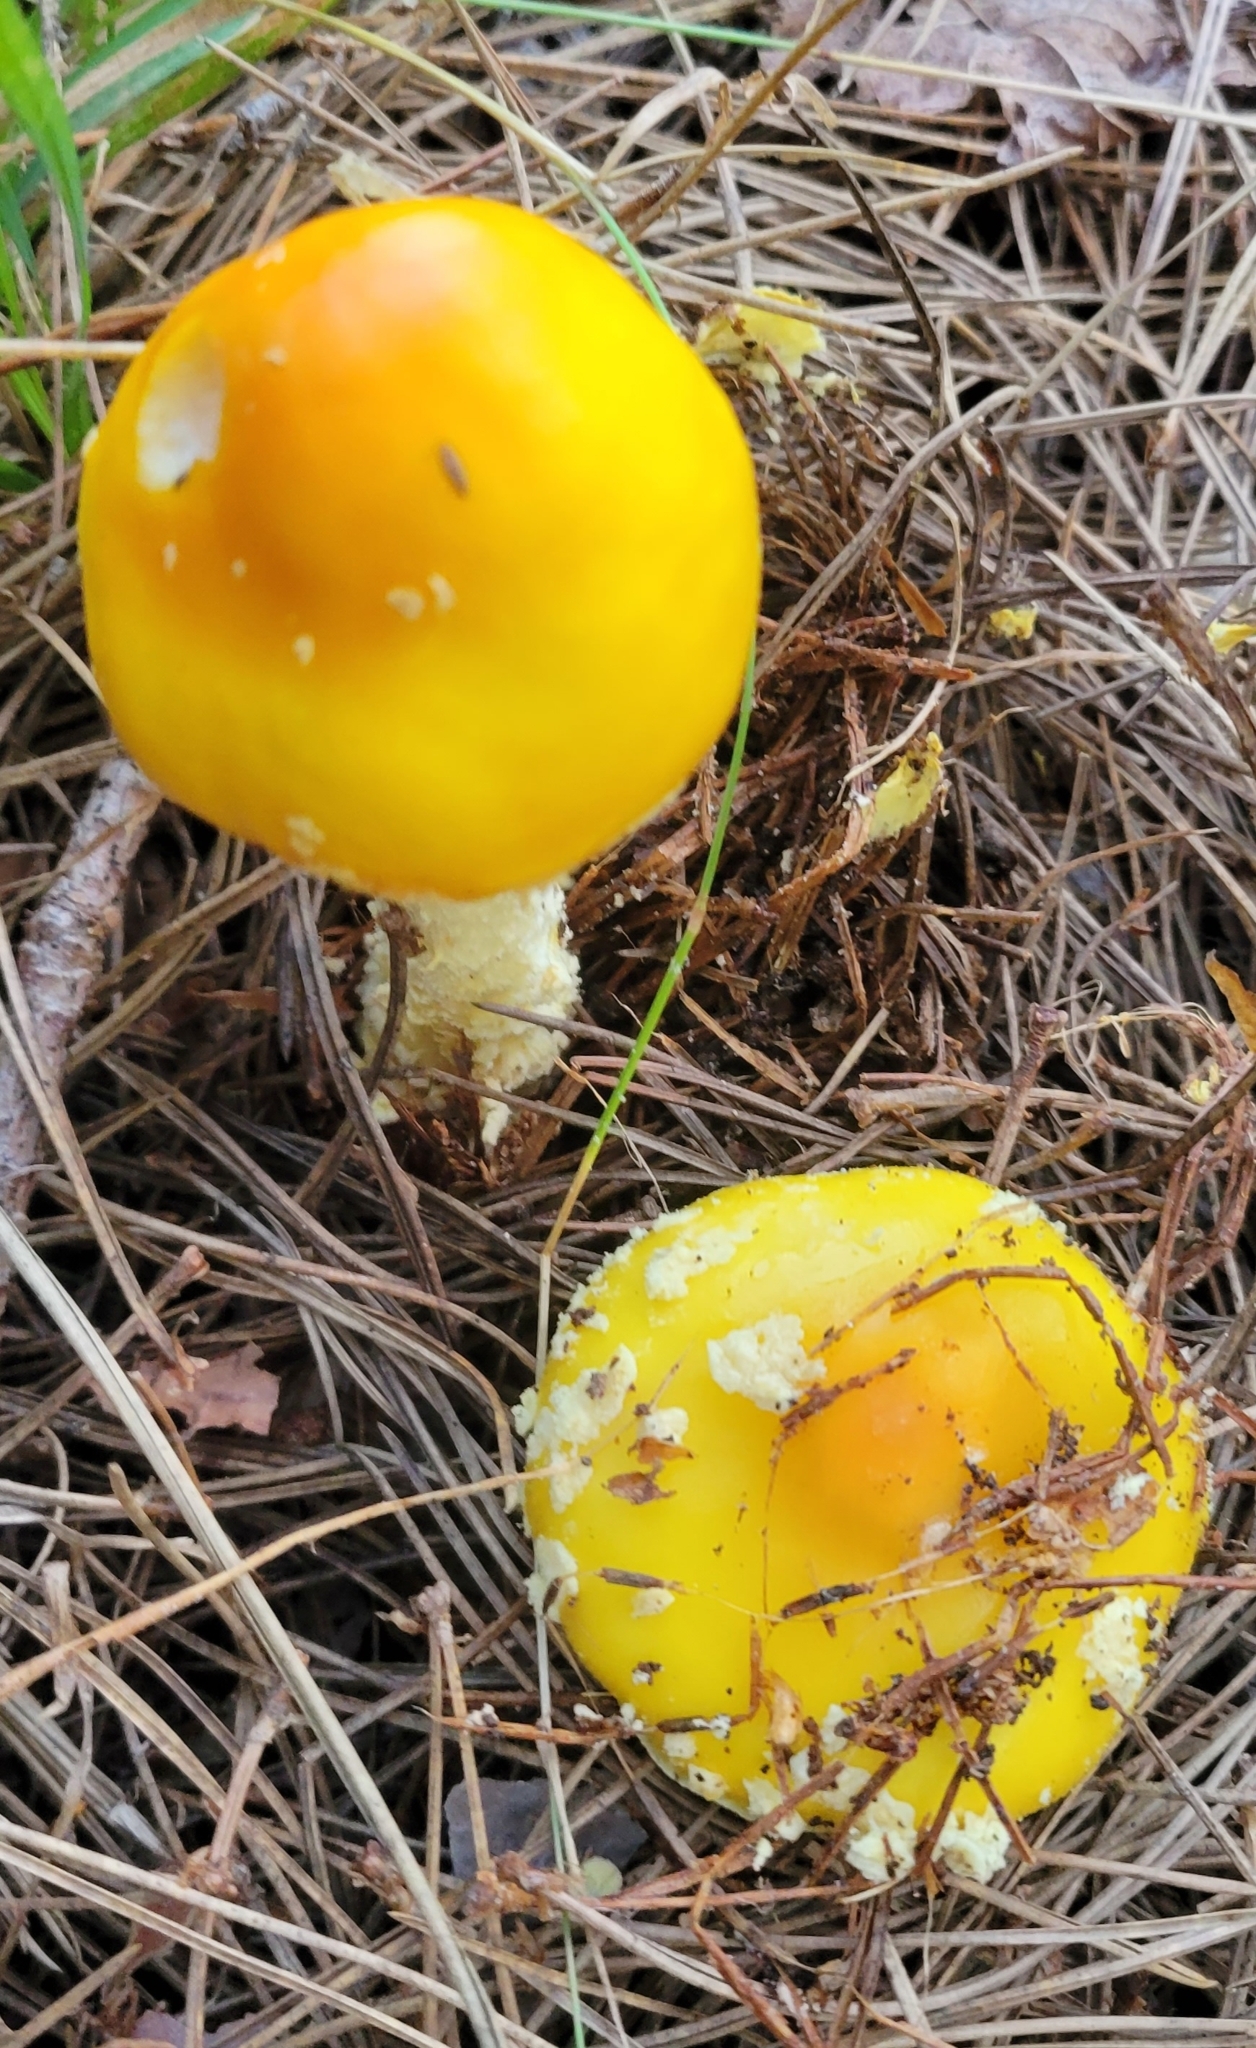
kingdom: Fungi
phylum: Basidiomycota
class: Agaricomycetes
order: Agaricales
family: Amanitaceae
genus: Amanita
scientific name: Amanita muscaria
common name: Fly agaric
